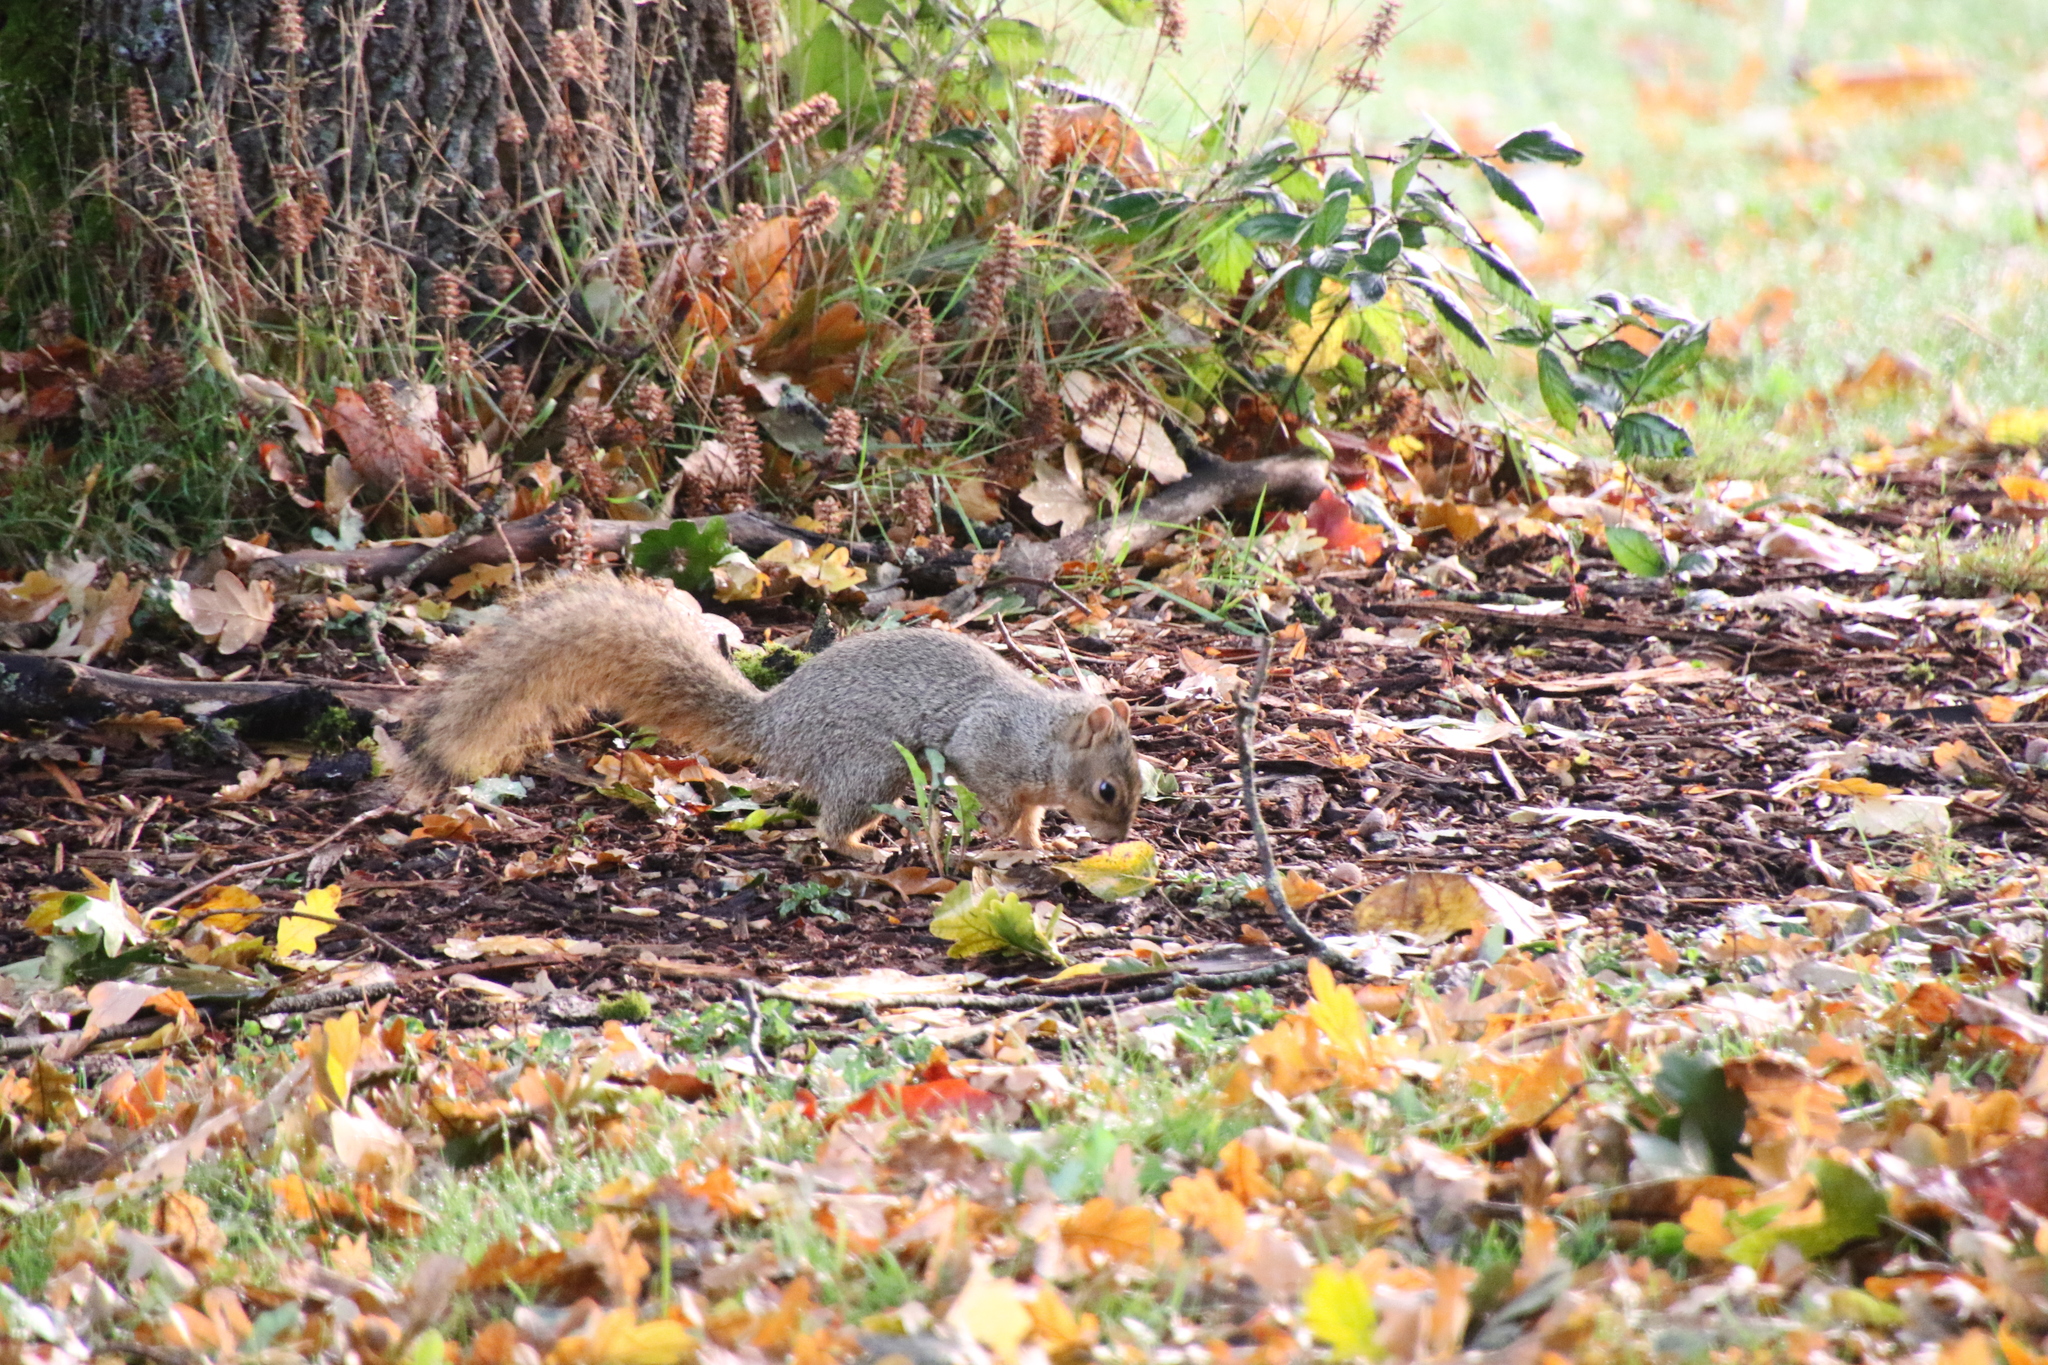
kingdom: Animalia
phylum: Chordata
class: Mammalia
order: Rodentia
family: Sciuridae
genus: Sciurus
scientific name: Sciurus niger
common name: Fox squirrel
